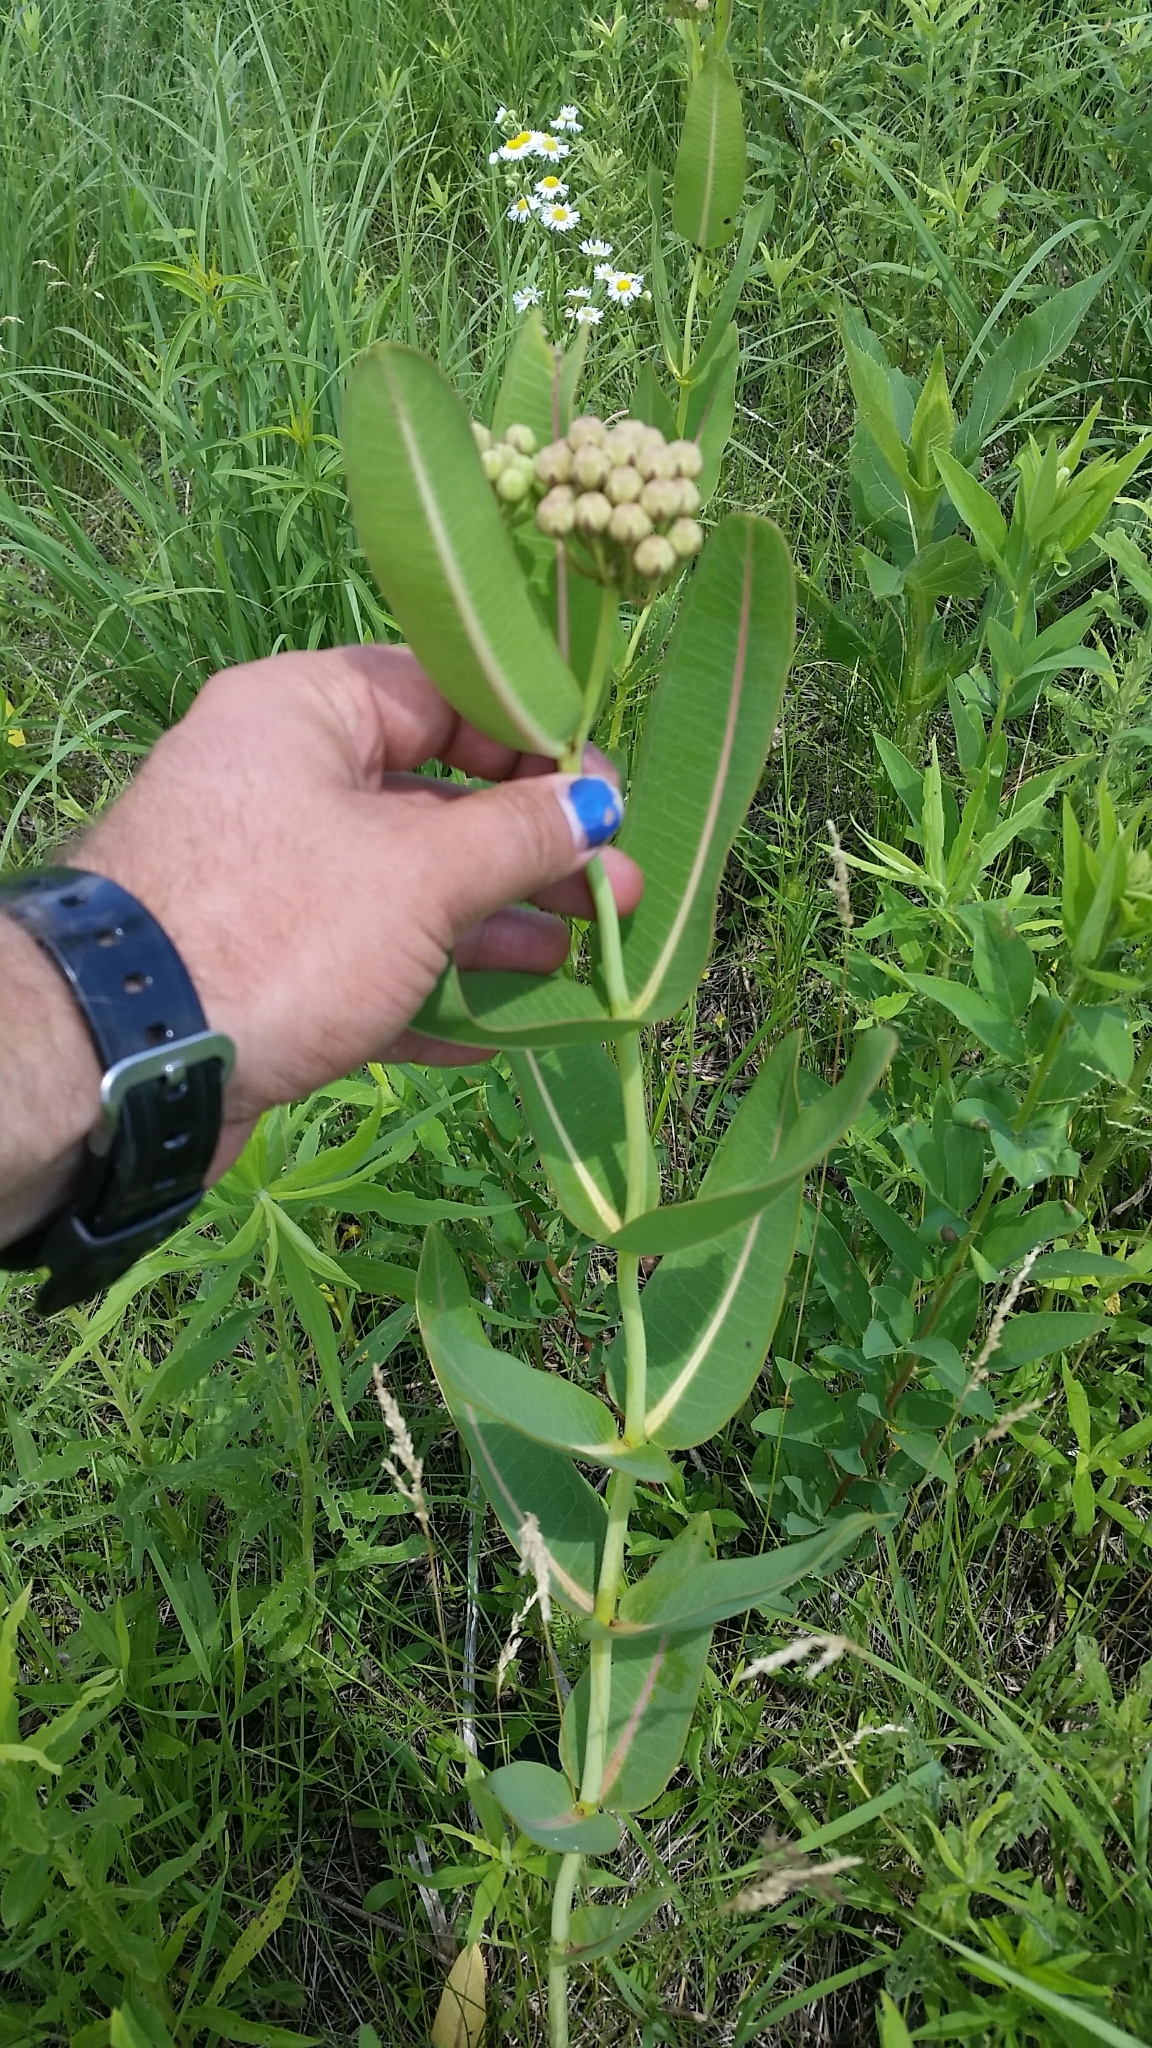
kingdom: Plantae
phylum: Tracheophyta
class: Magnoliopsida
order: Gentianales
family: Apocynaceae
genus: Asclepias
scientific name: Asclepias sullivantii
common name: Prairie milkweed
